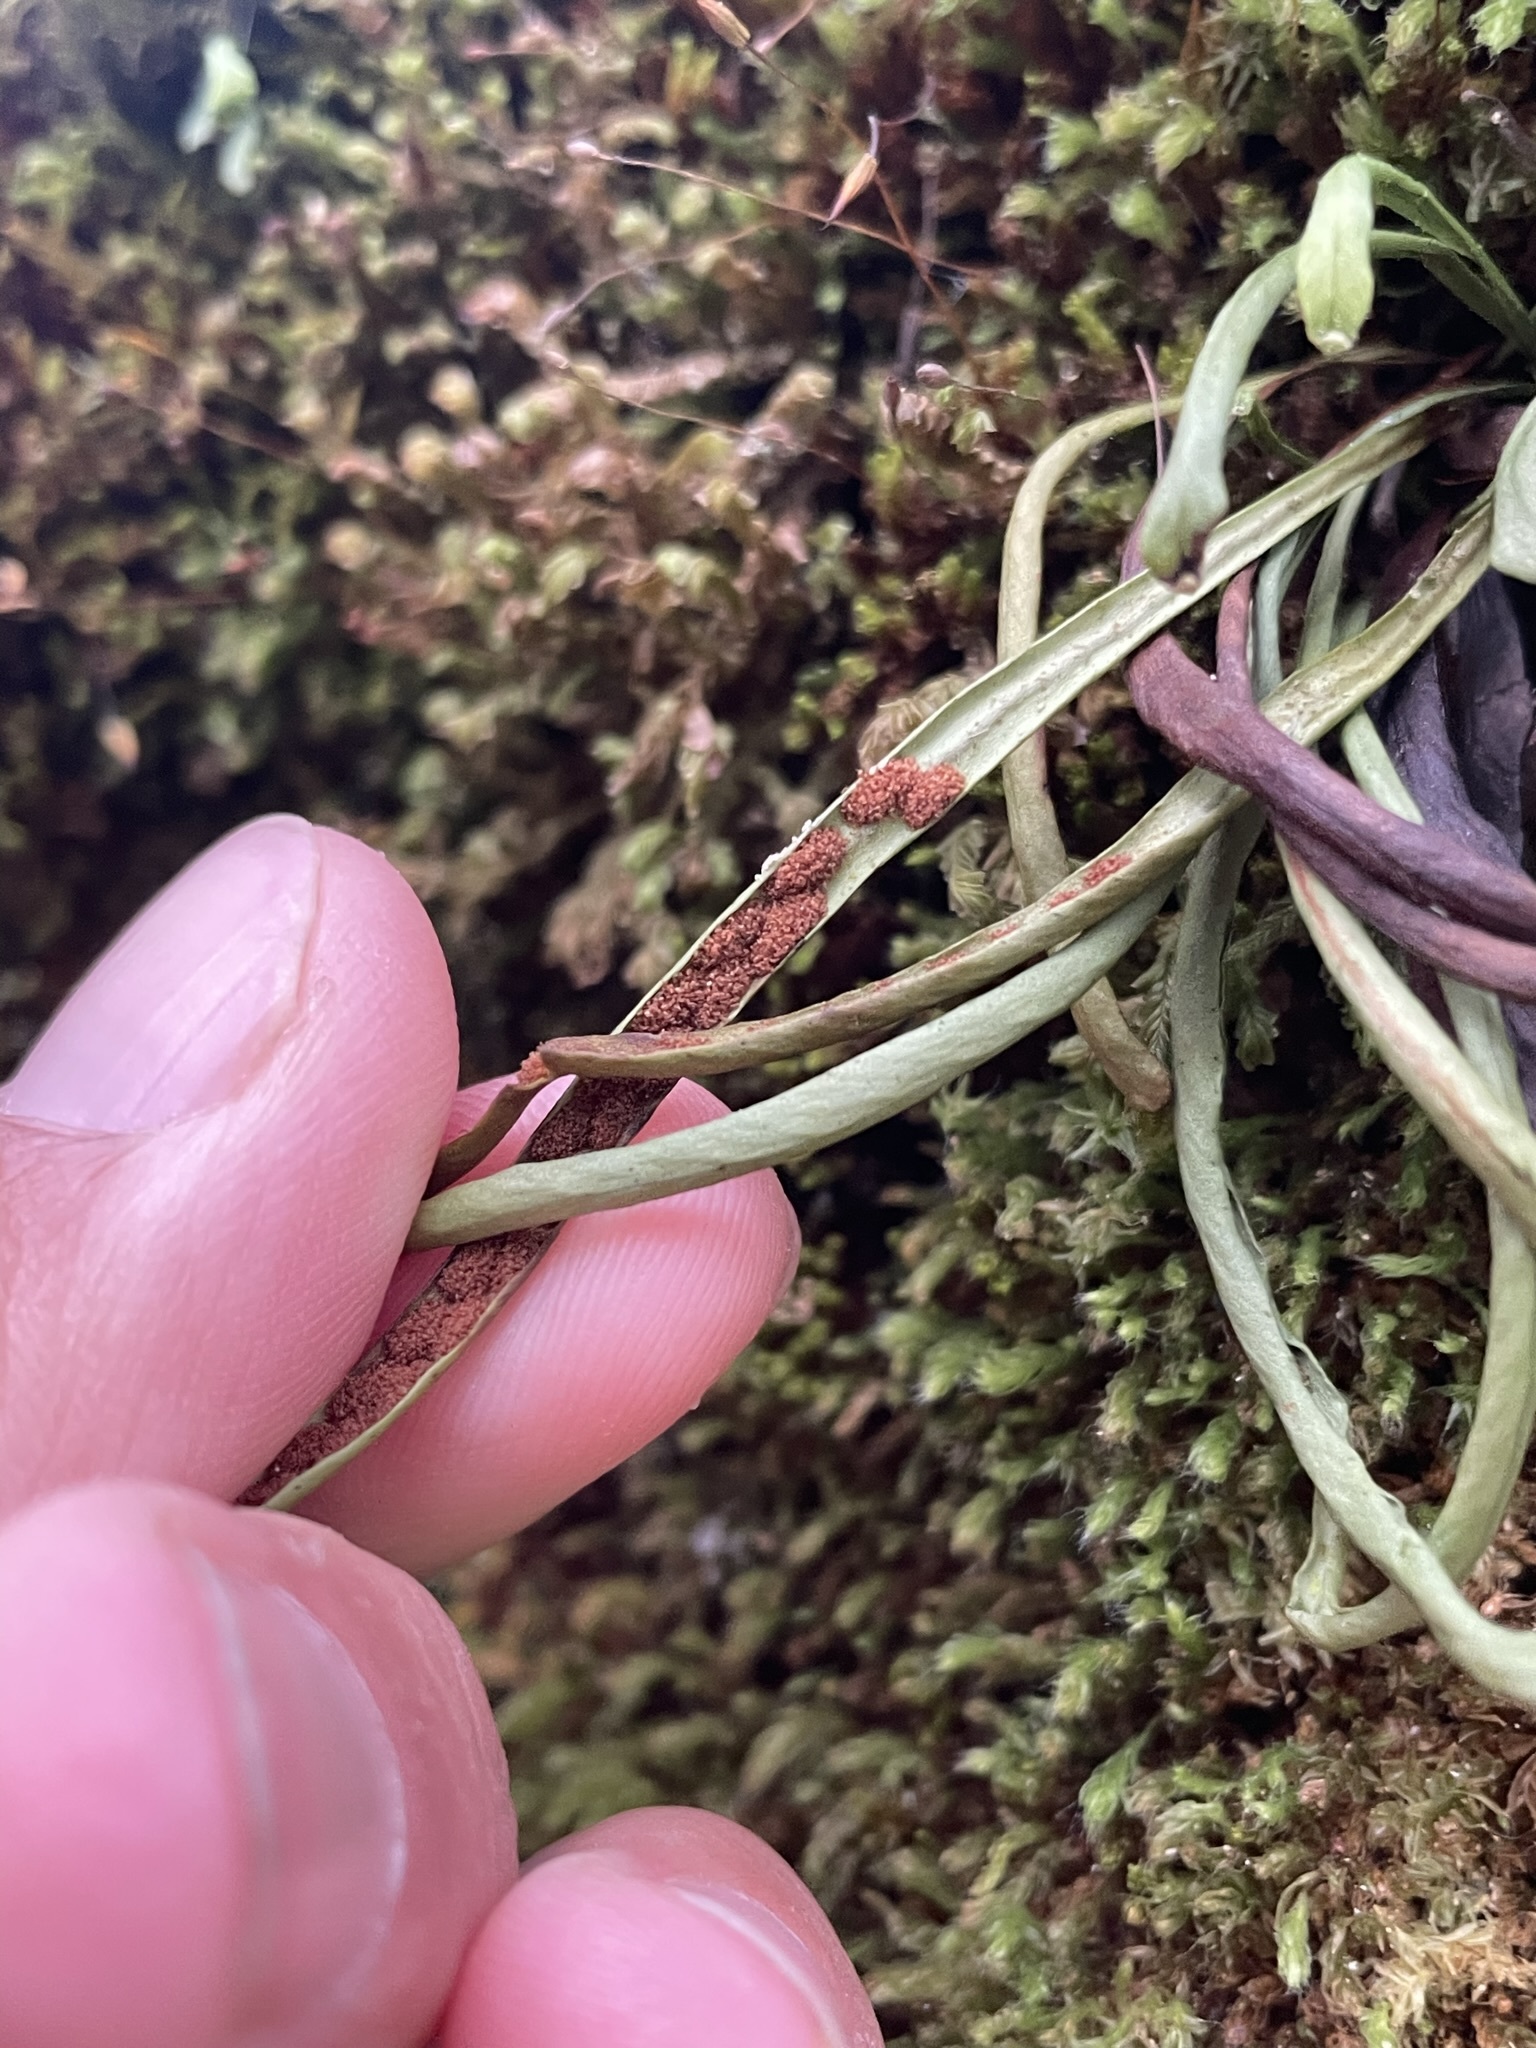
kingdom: Plantae
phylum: Tracheophyta
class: Polypodiopsida
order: Polypodiales
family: Polypodiaceae
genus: Notogrammitis
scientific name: Notogrammitis angustifolia
